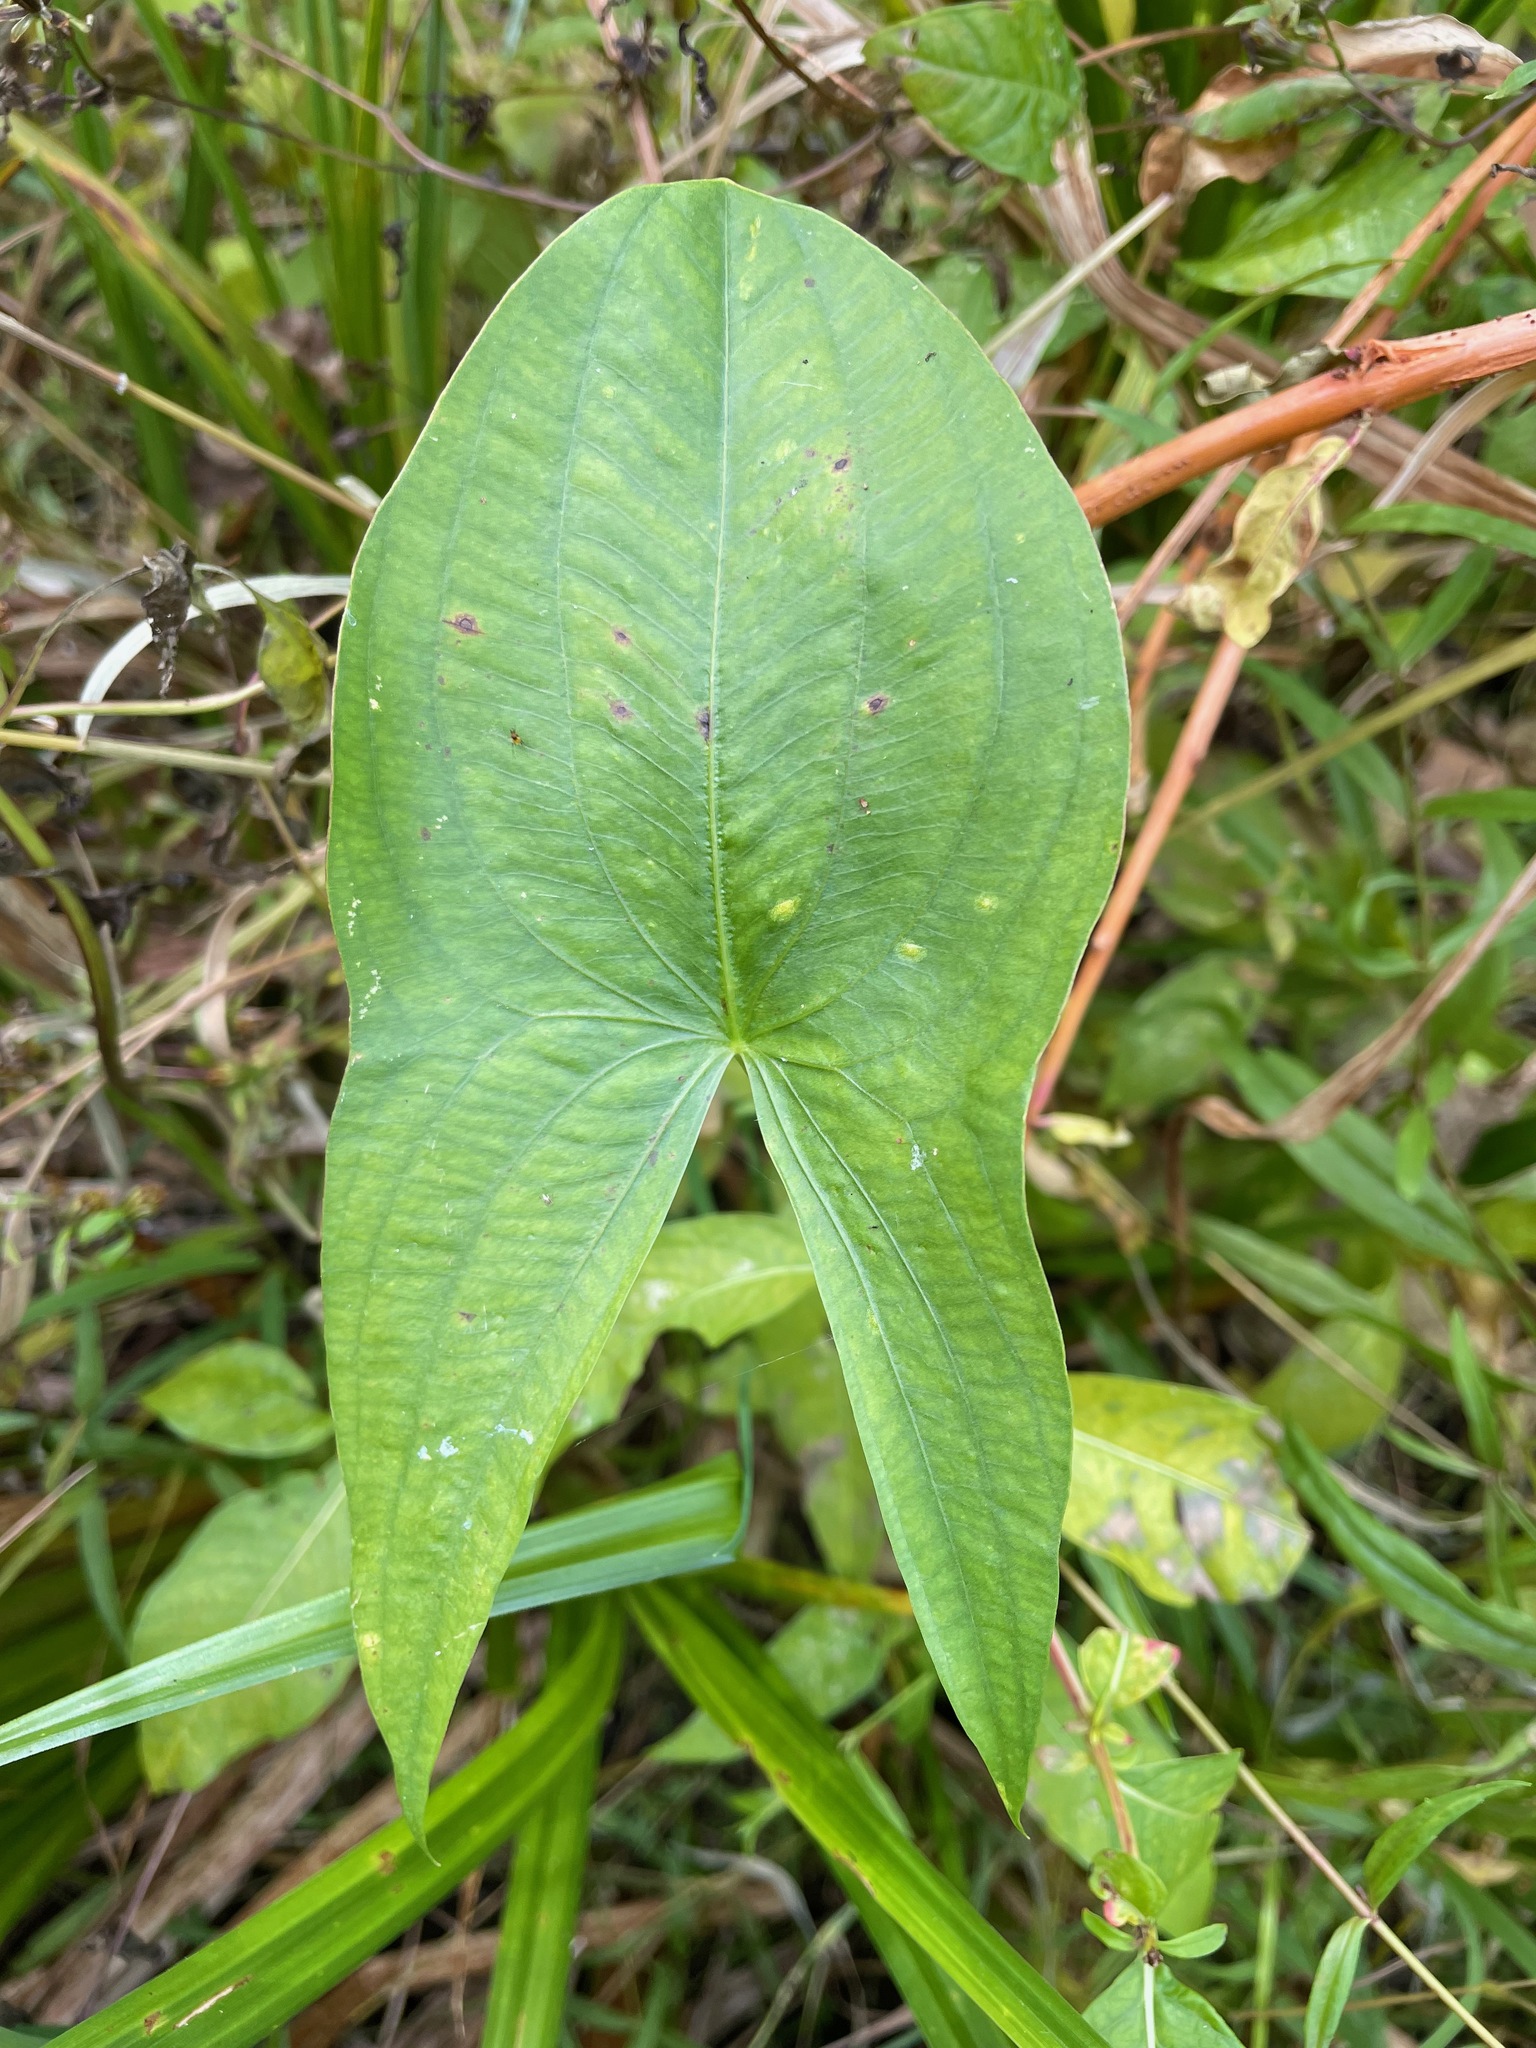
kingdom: Plantae
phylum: Tracheophyta
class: Liliopsida
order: Alismatales
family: Alismataceae
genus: Sagittaria
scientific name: Sagittaria latifolia
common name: Duck-potato
